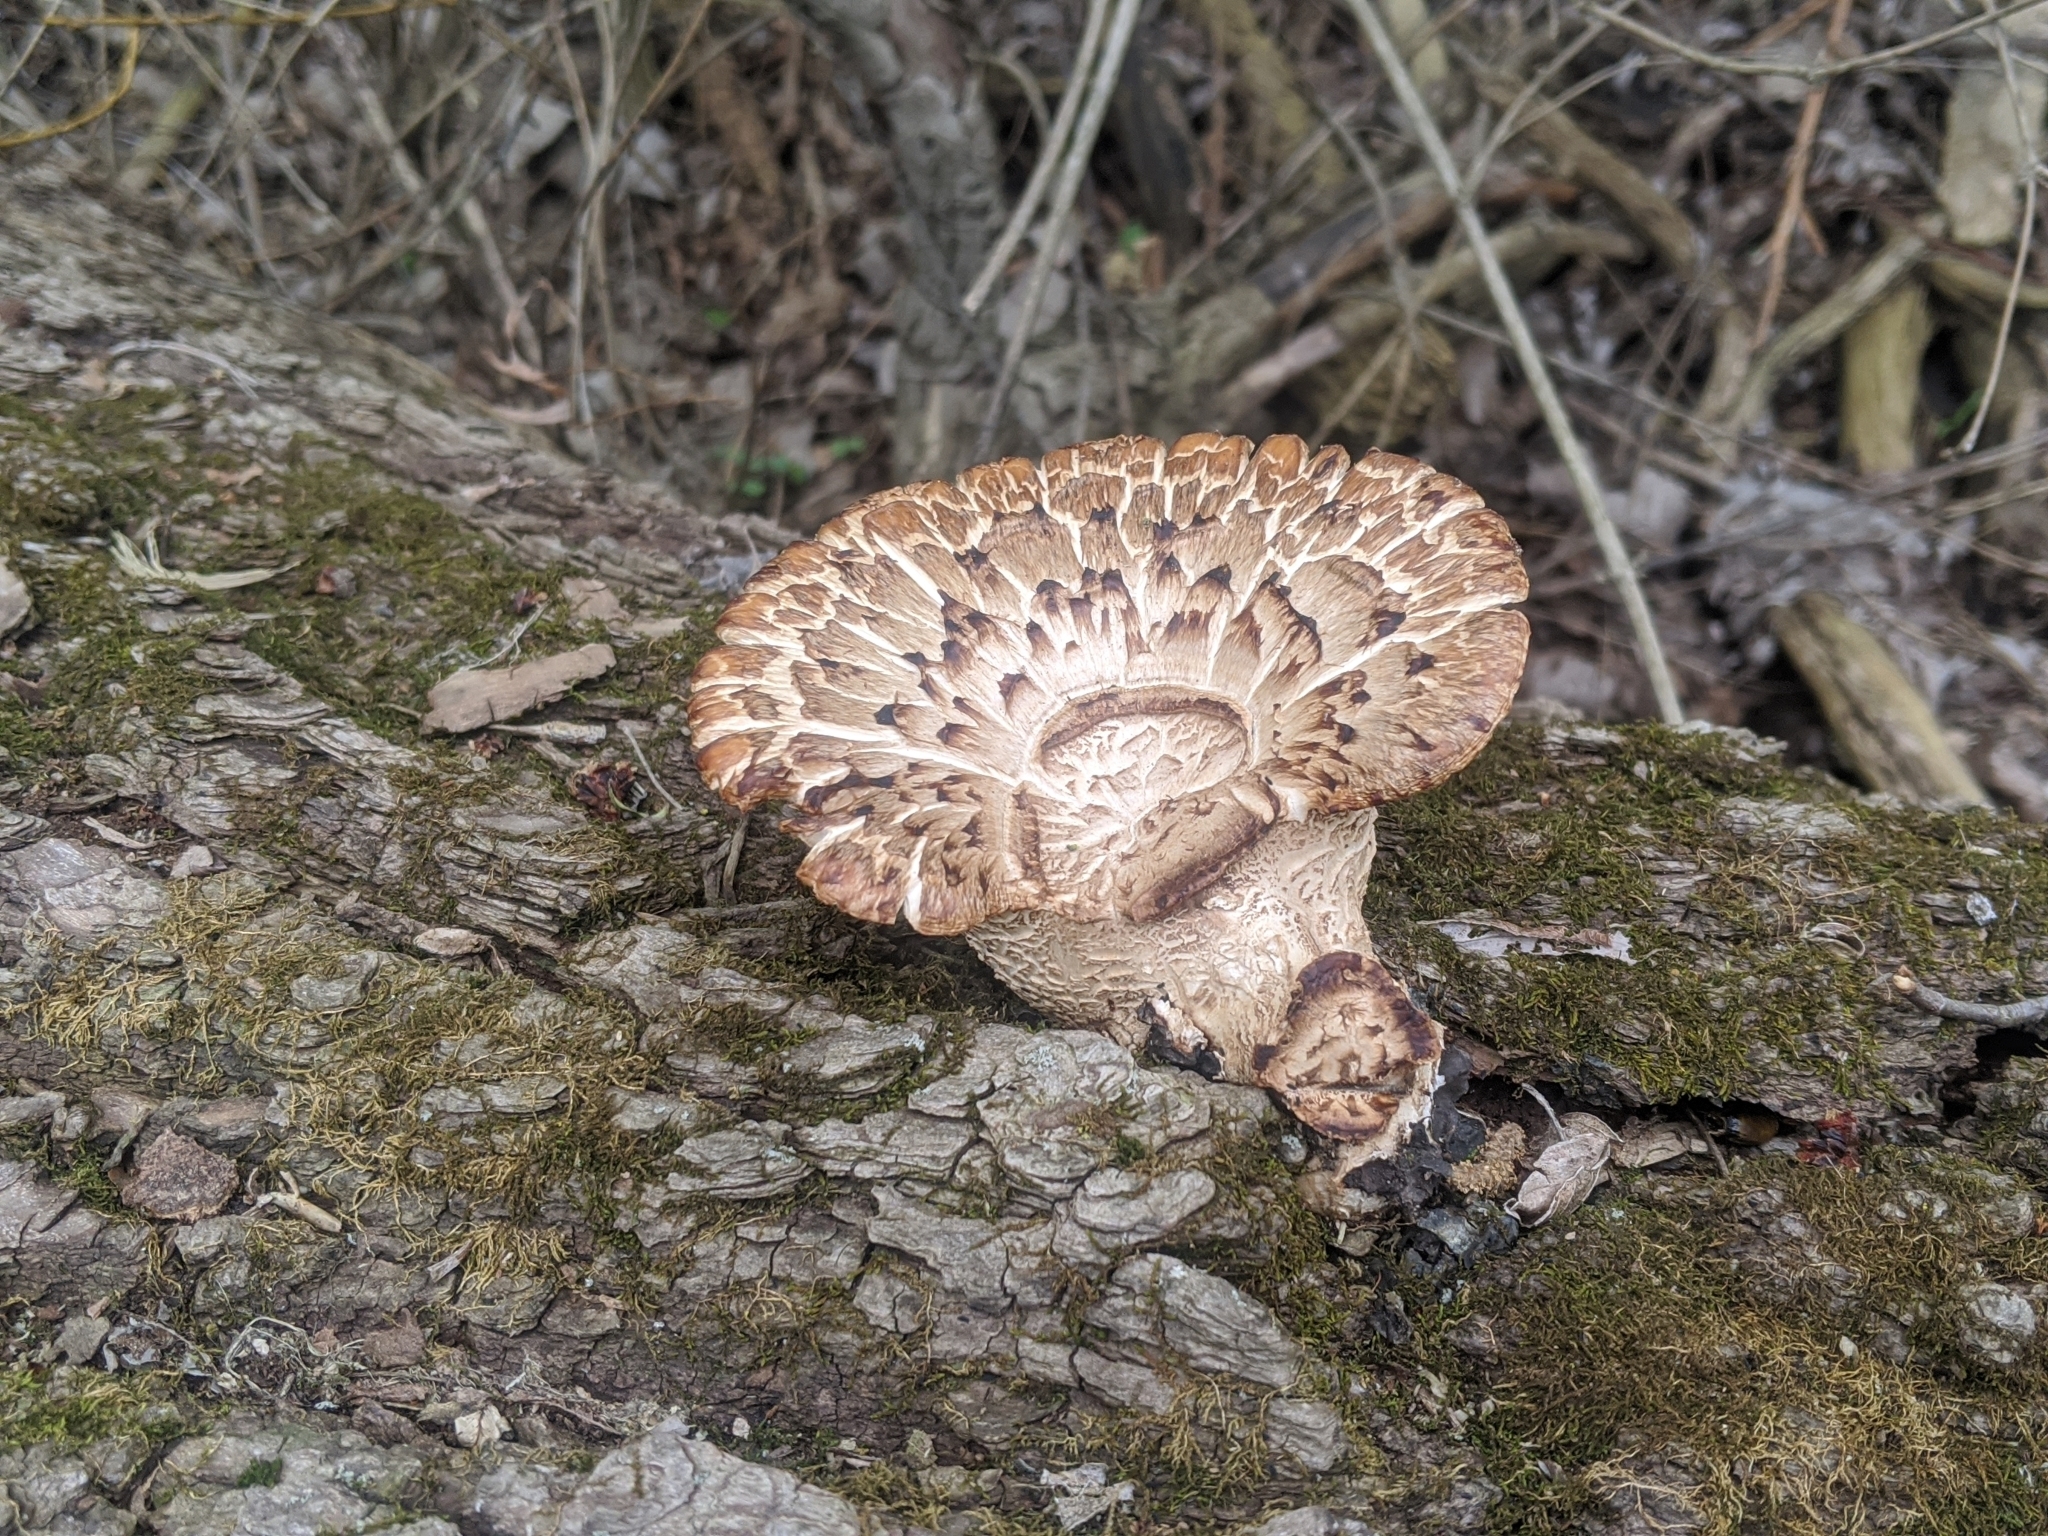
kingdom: Fungi
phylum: Basidiomycota
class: Agaricomycetes
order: Polyporales
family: Polyporaceae
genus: Cerioporus
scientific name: Cerioporus squamosus
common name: Dryad's saddle
